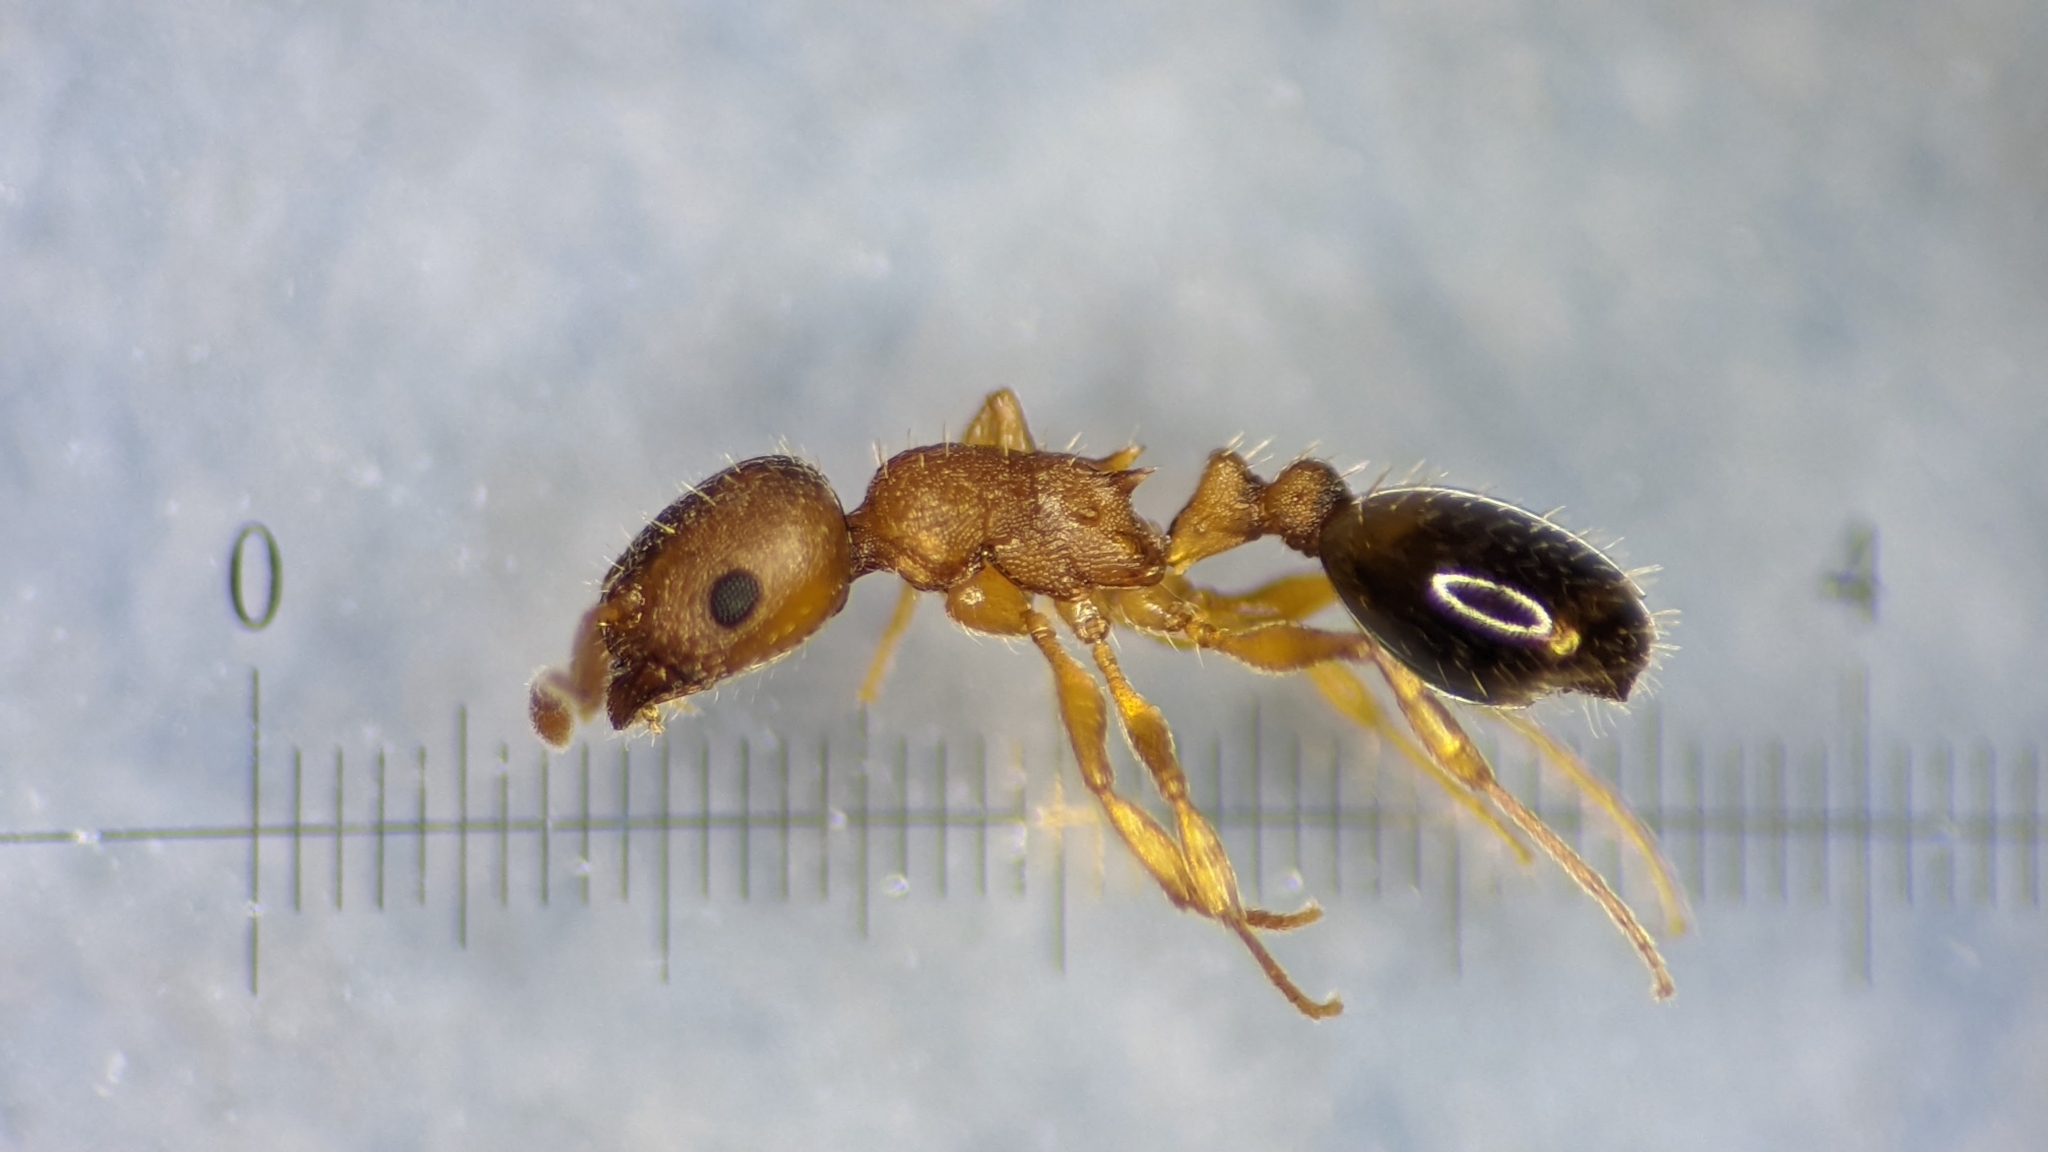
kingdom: Animalia
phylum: Arthropoda
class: Insecta
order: Hymenoptera
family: Formicidae
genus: Leptothorax
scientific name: Leptothorax nylanderi
